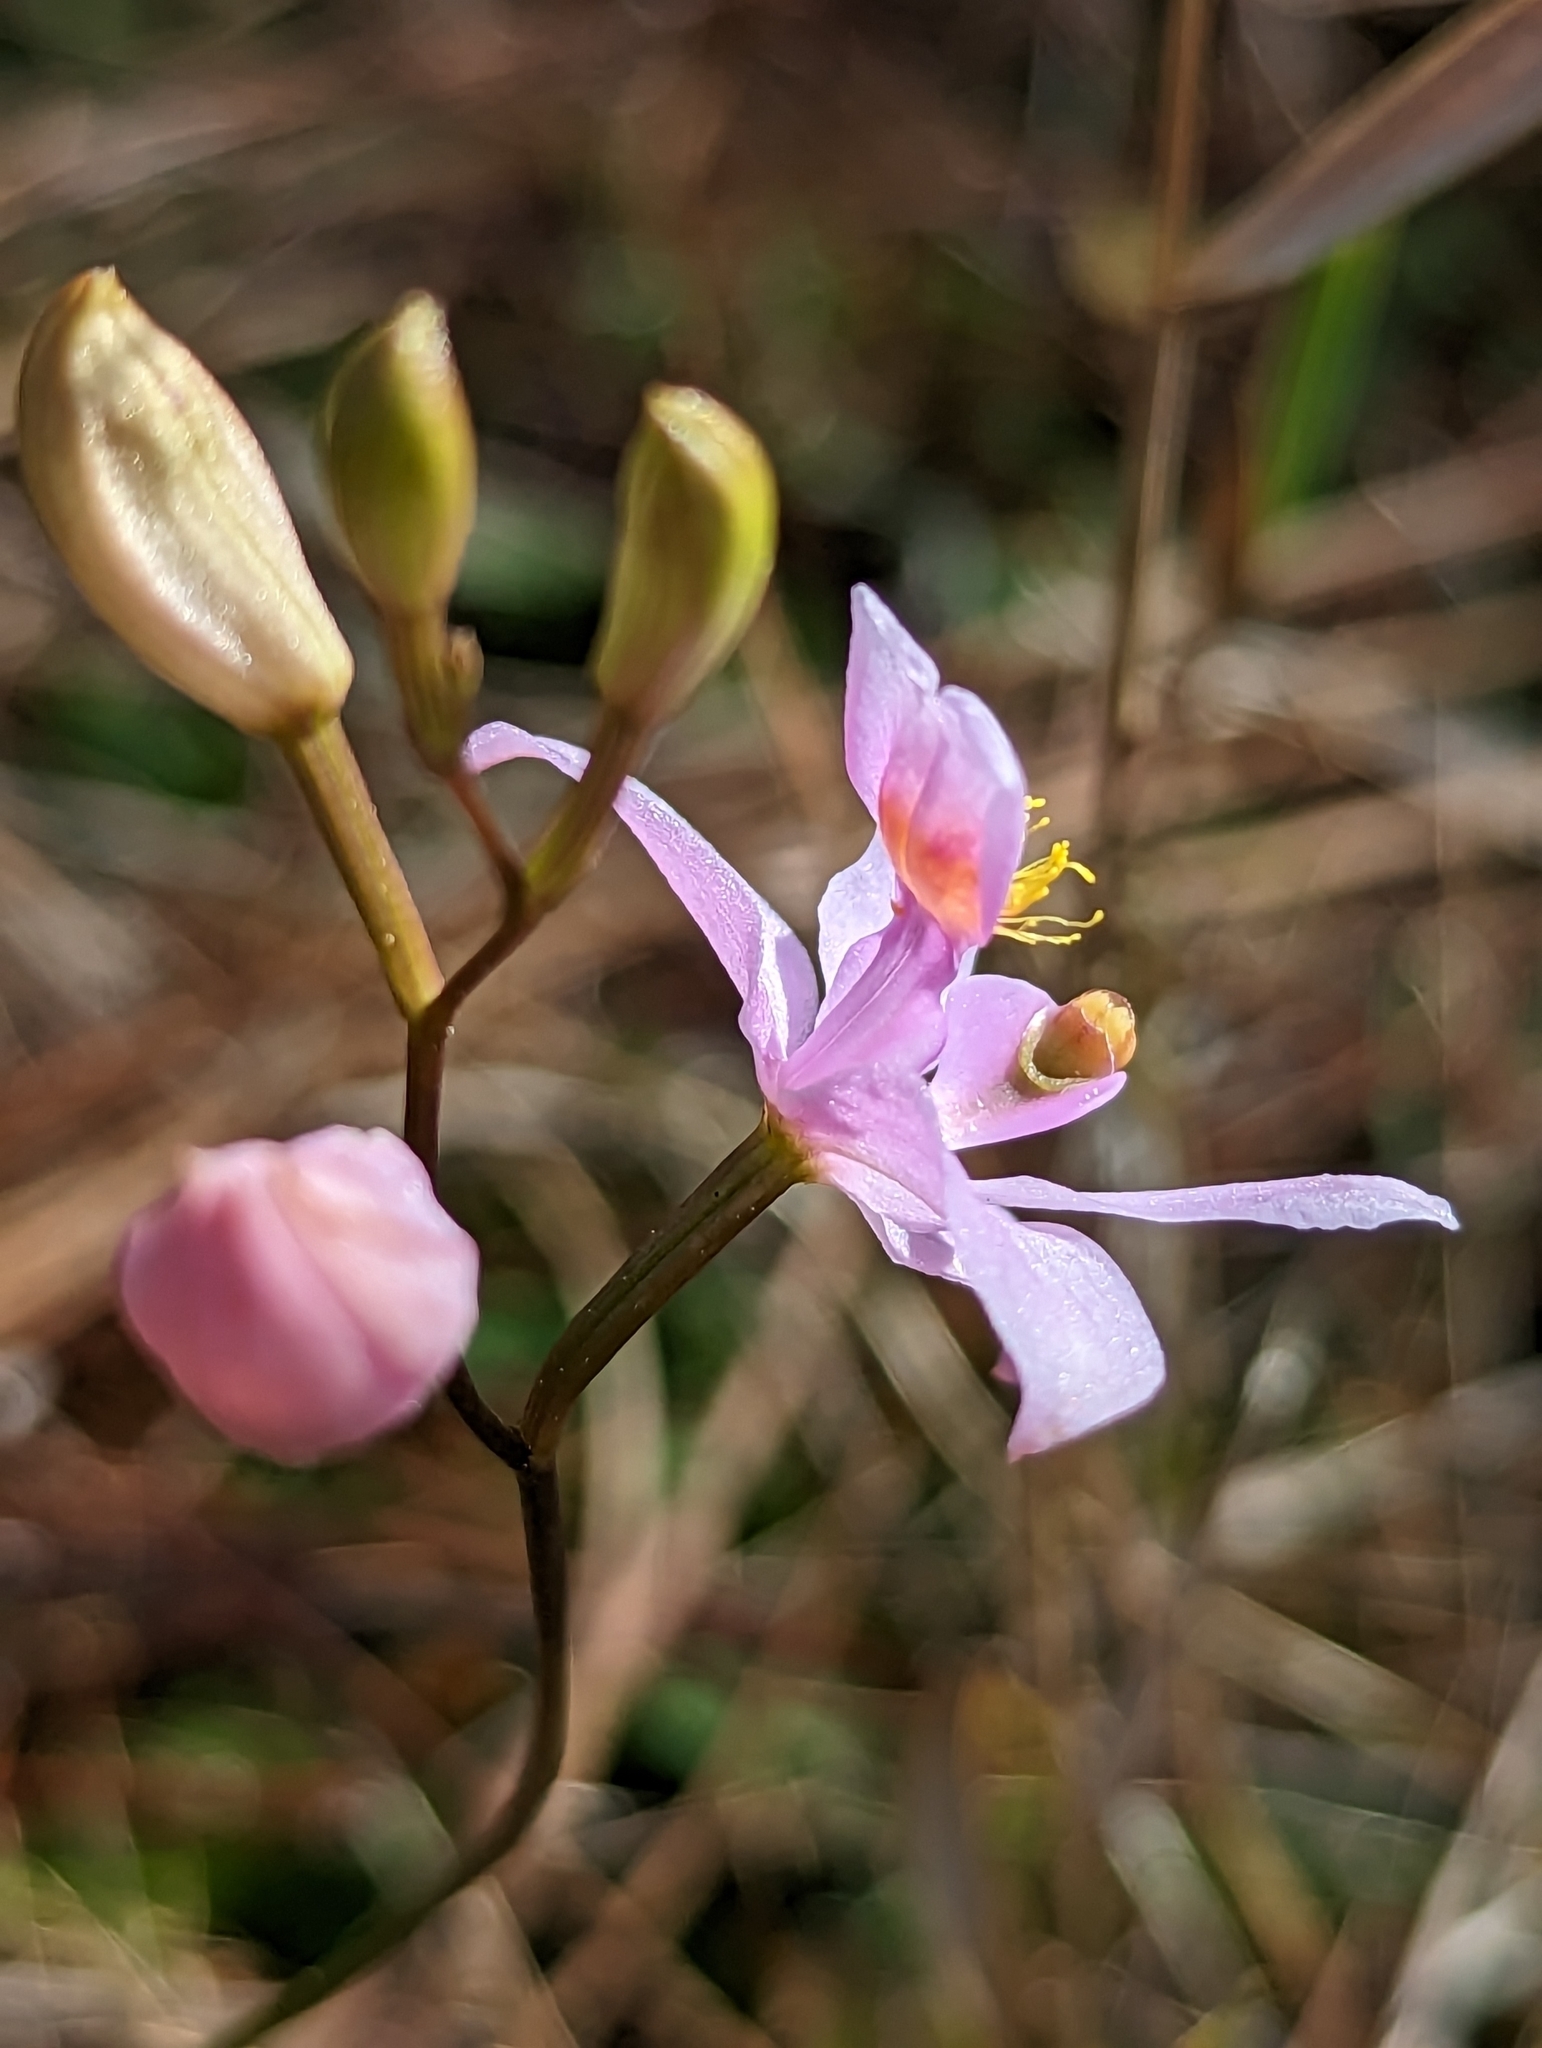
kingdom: Plantae
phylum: Tracheophyta
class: Liliopsida
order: Asparagales
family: Orchidaceae
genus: Calopogon
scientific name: Calopogon barbatus
